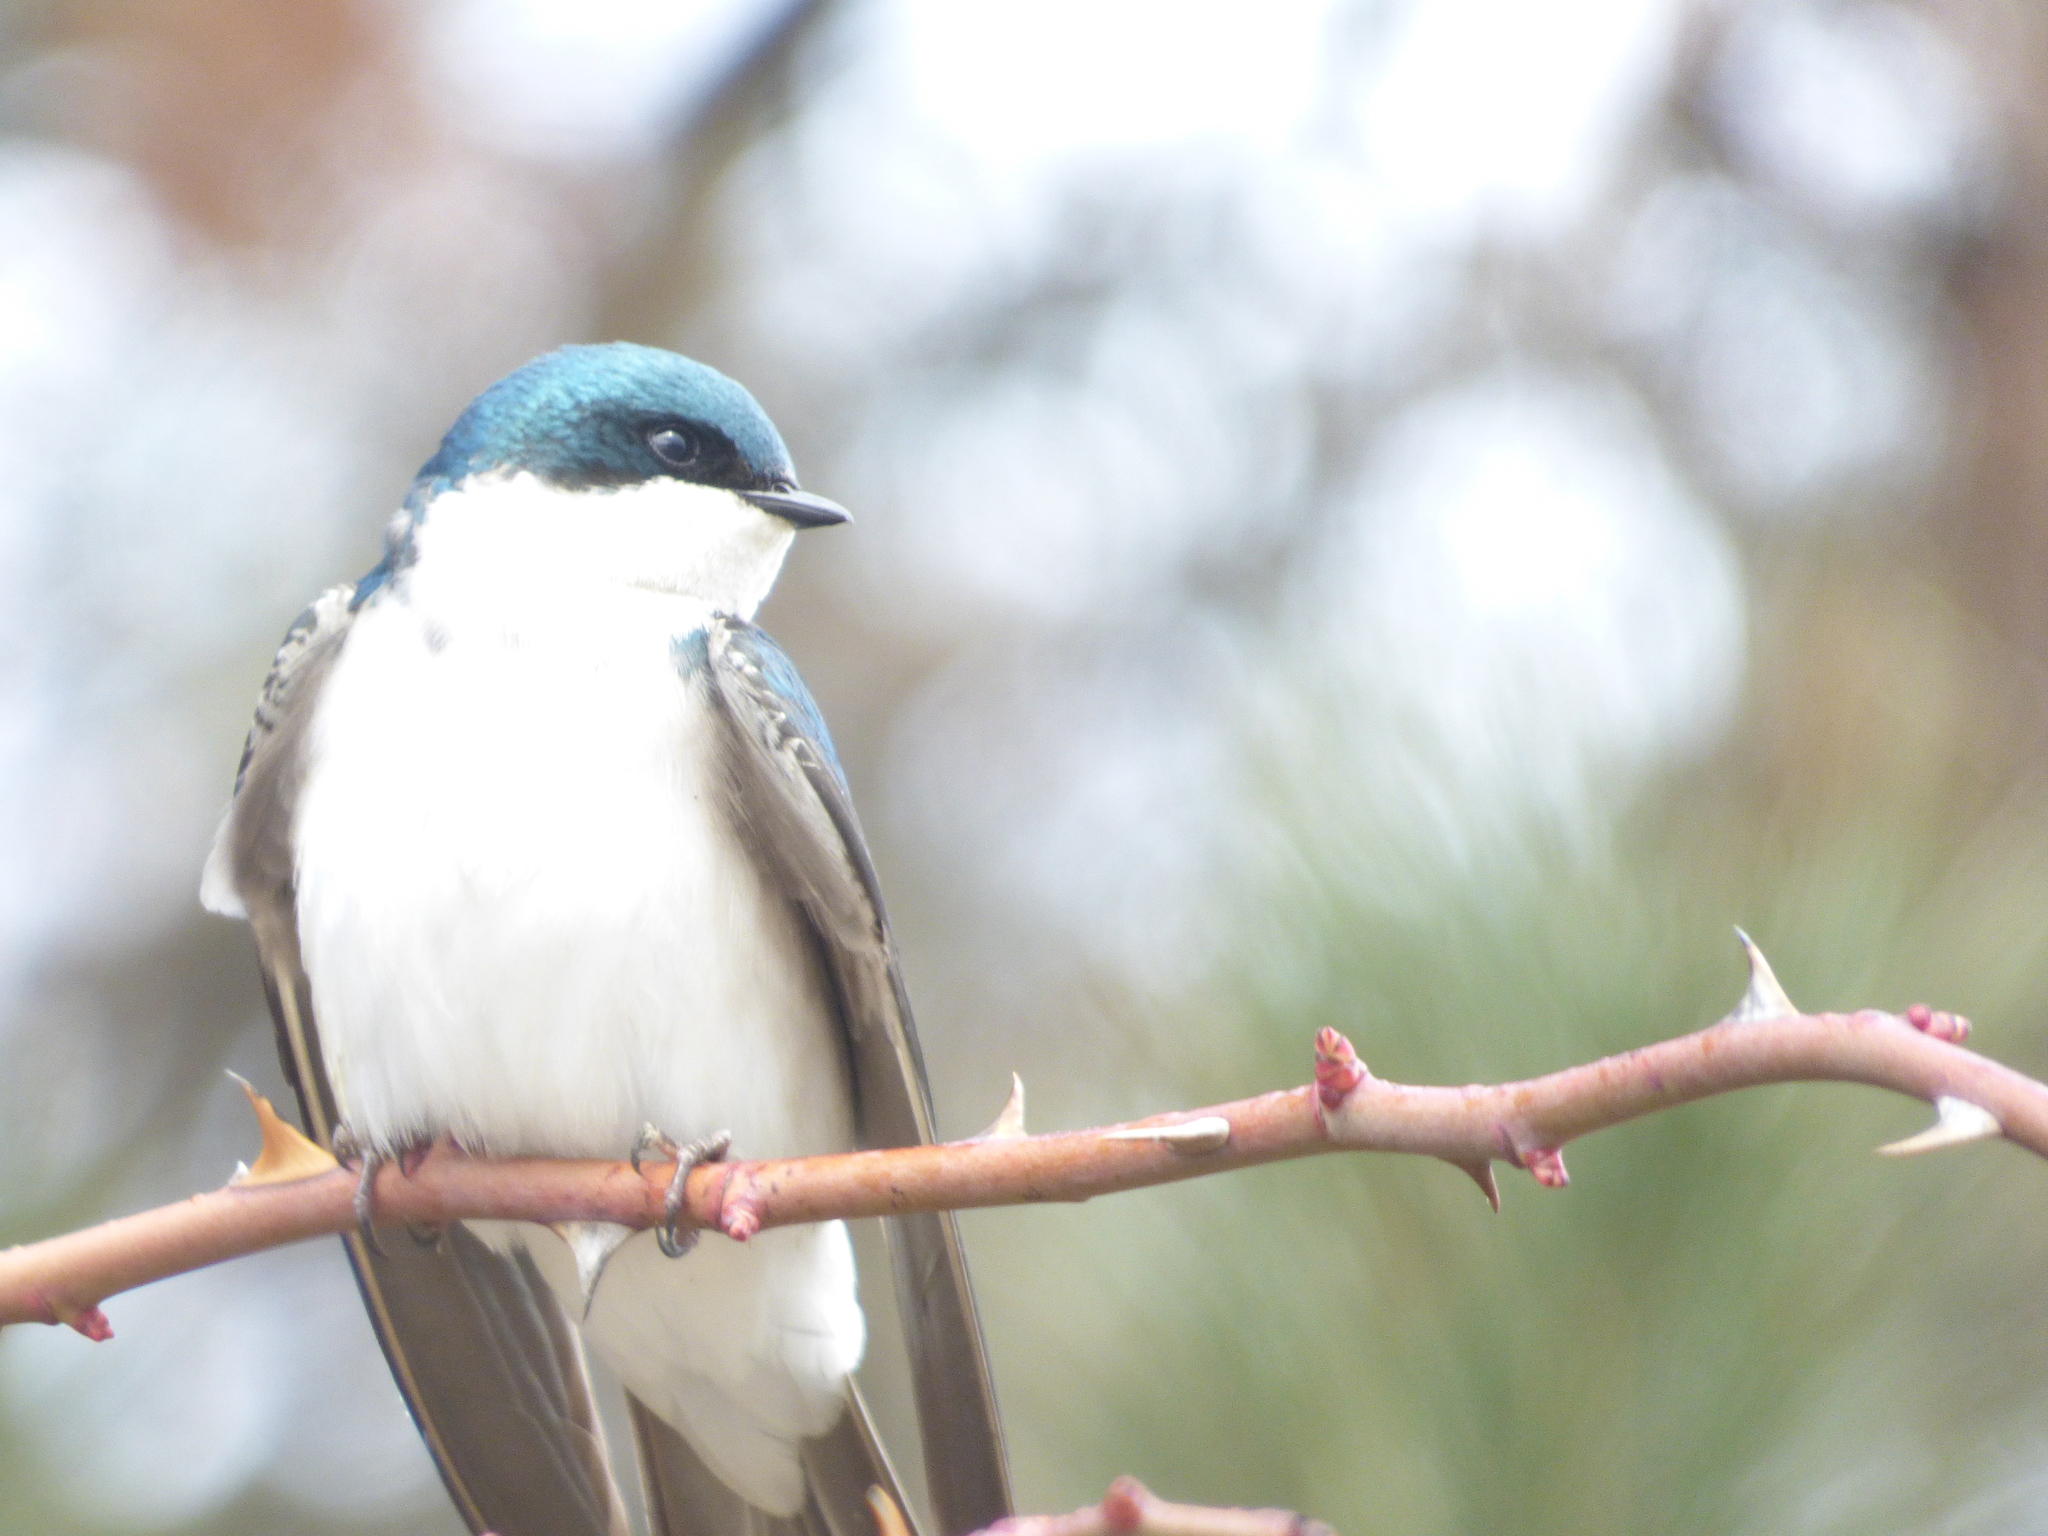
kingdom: Animalia
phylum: Chordata
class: Aves
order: Passeriformes
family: Hirundinidae
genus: Tachycineta
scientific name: Tachycineta bicolor
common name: Tree swallow
